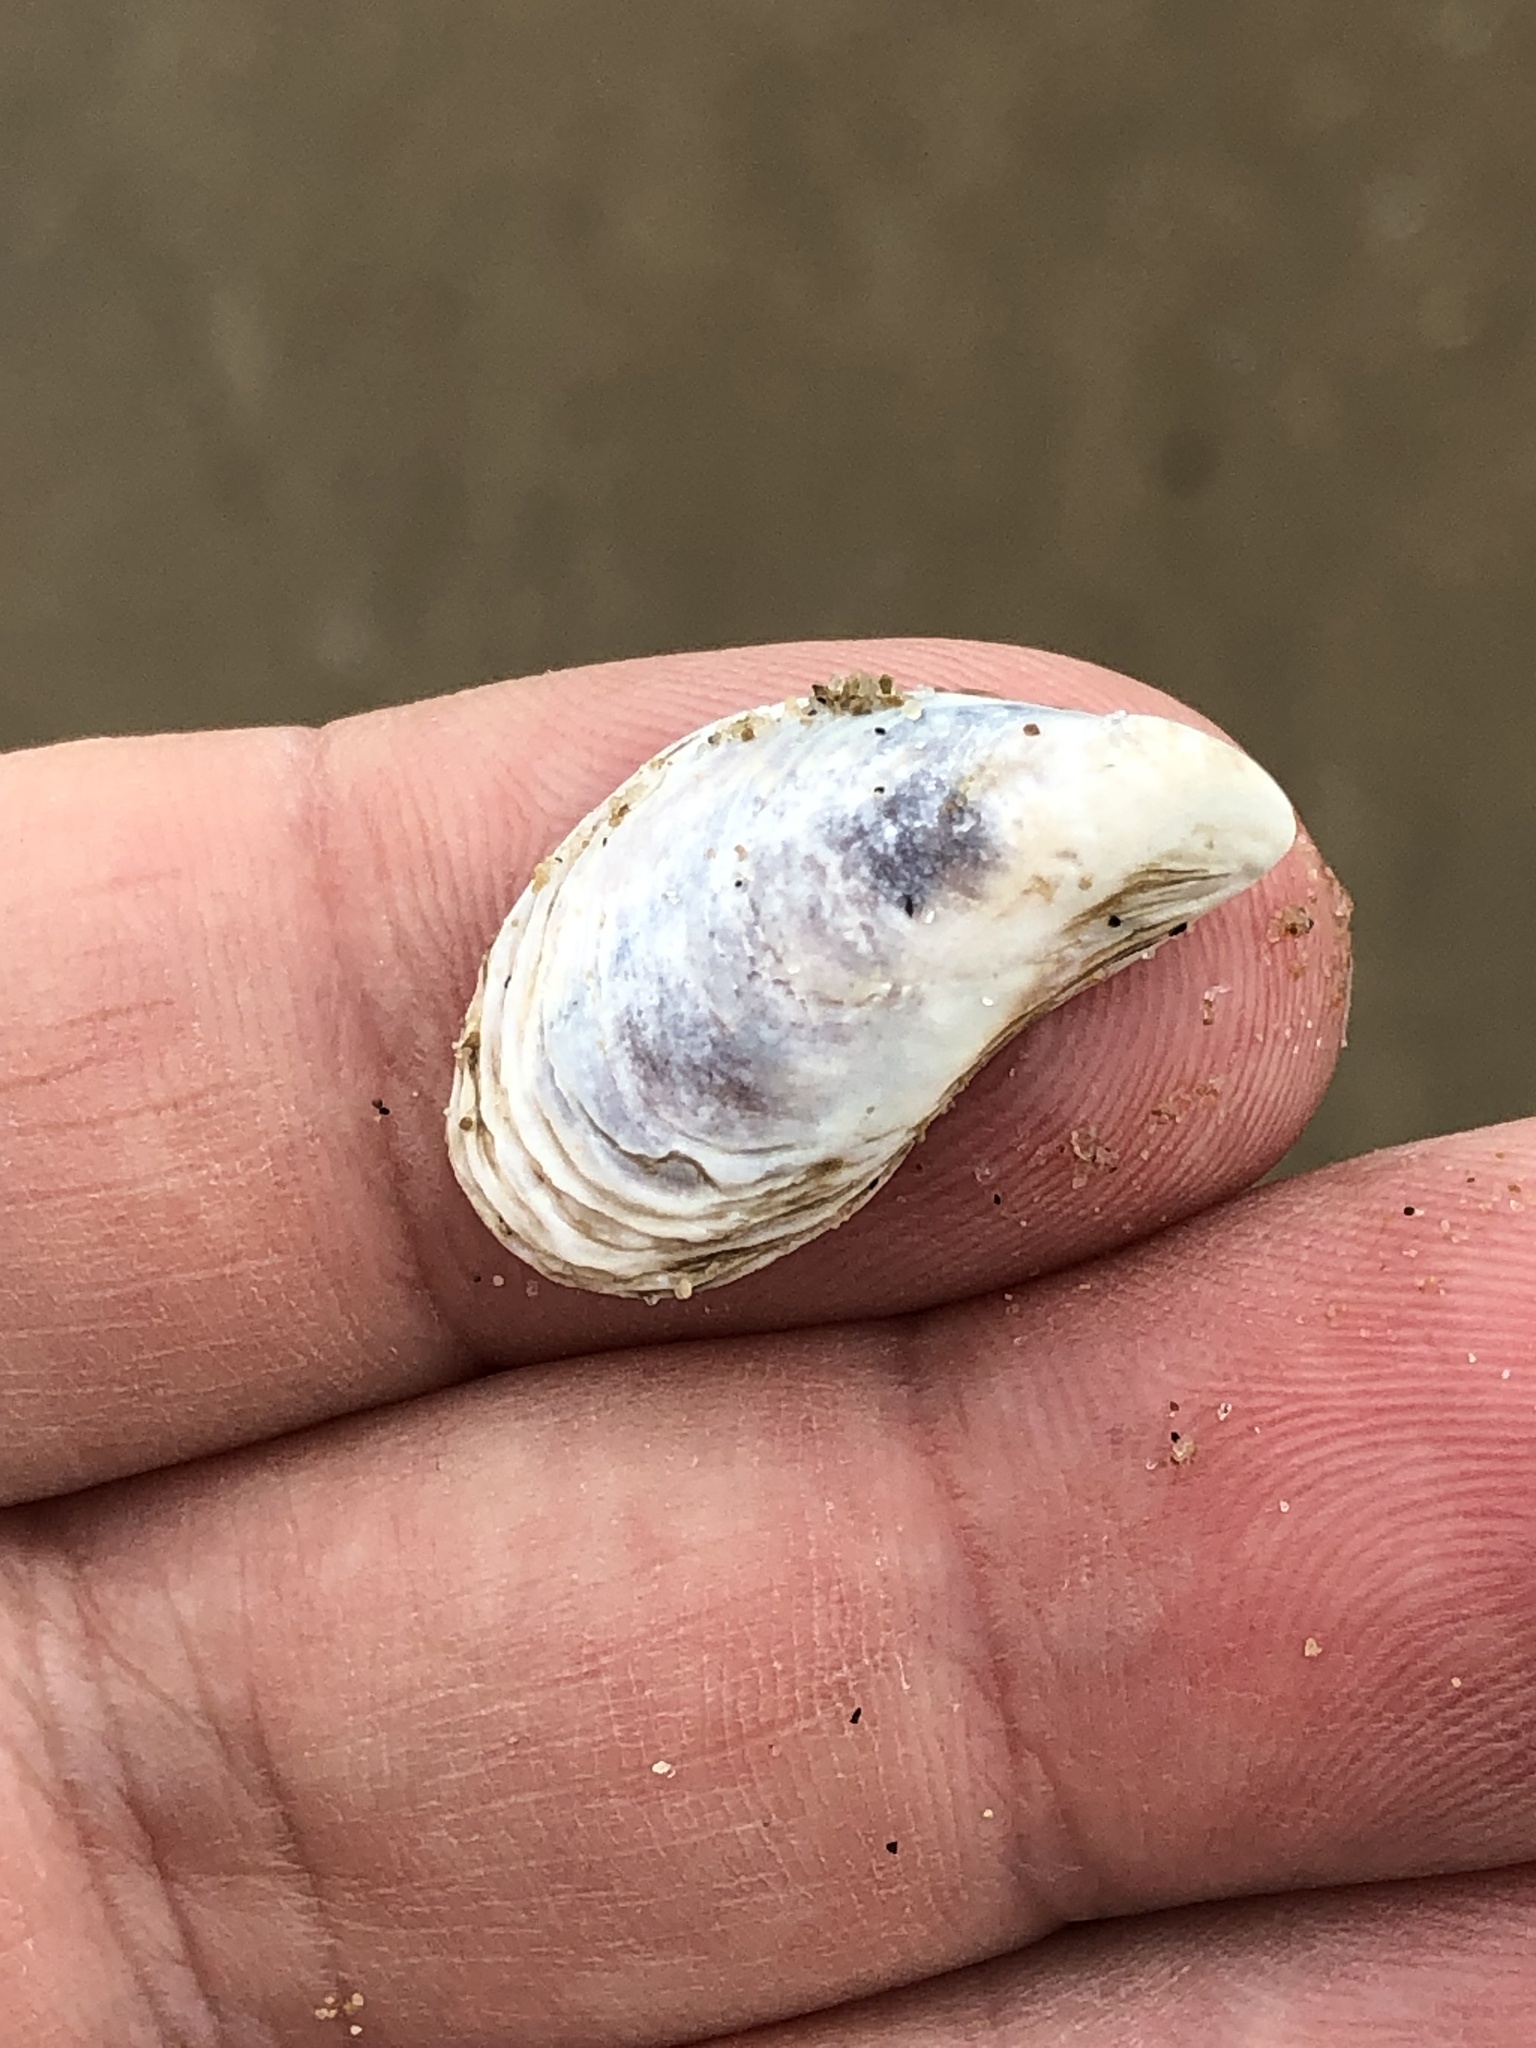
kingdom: Animalia
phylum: Mollusca
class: Bivalvia
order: Myida
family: Dreissenidae
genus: Dreissena
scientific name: Dreissena bugensis
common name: Quagga mussel
